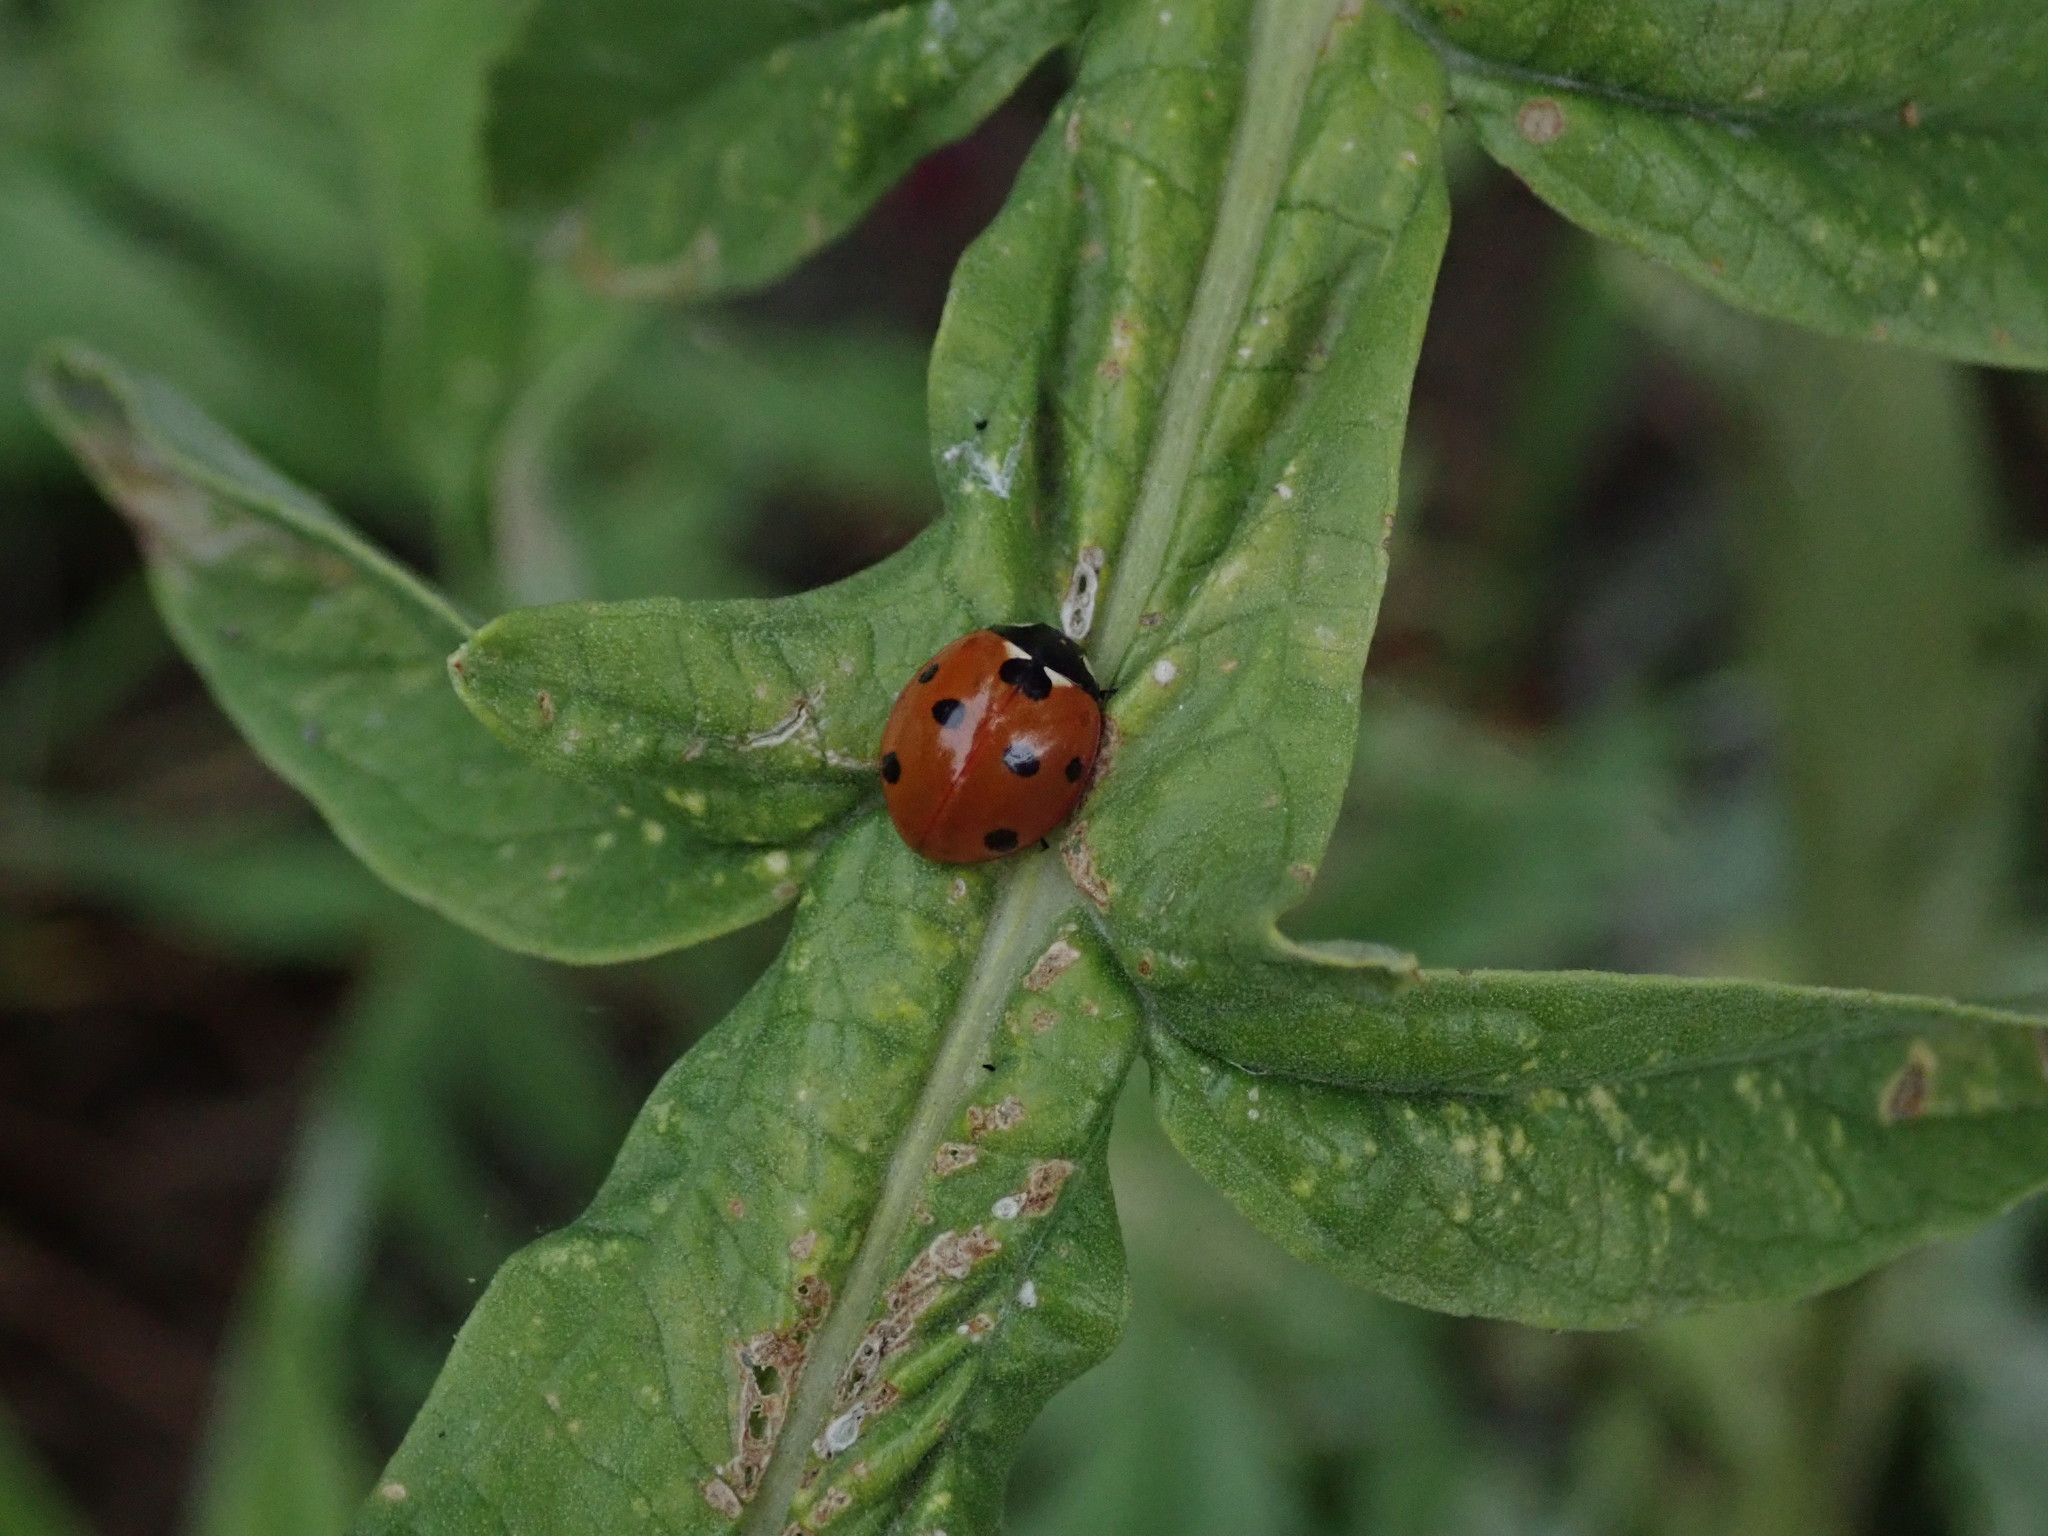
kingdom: Animalia
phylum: Arthropoda
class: Insecta
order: Coleoptera
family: Coccinellidae
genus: Coccinella
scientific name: Coccinella septempunctata
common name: Sevenspotted lady beetle
